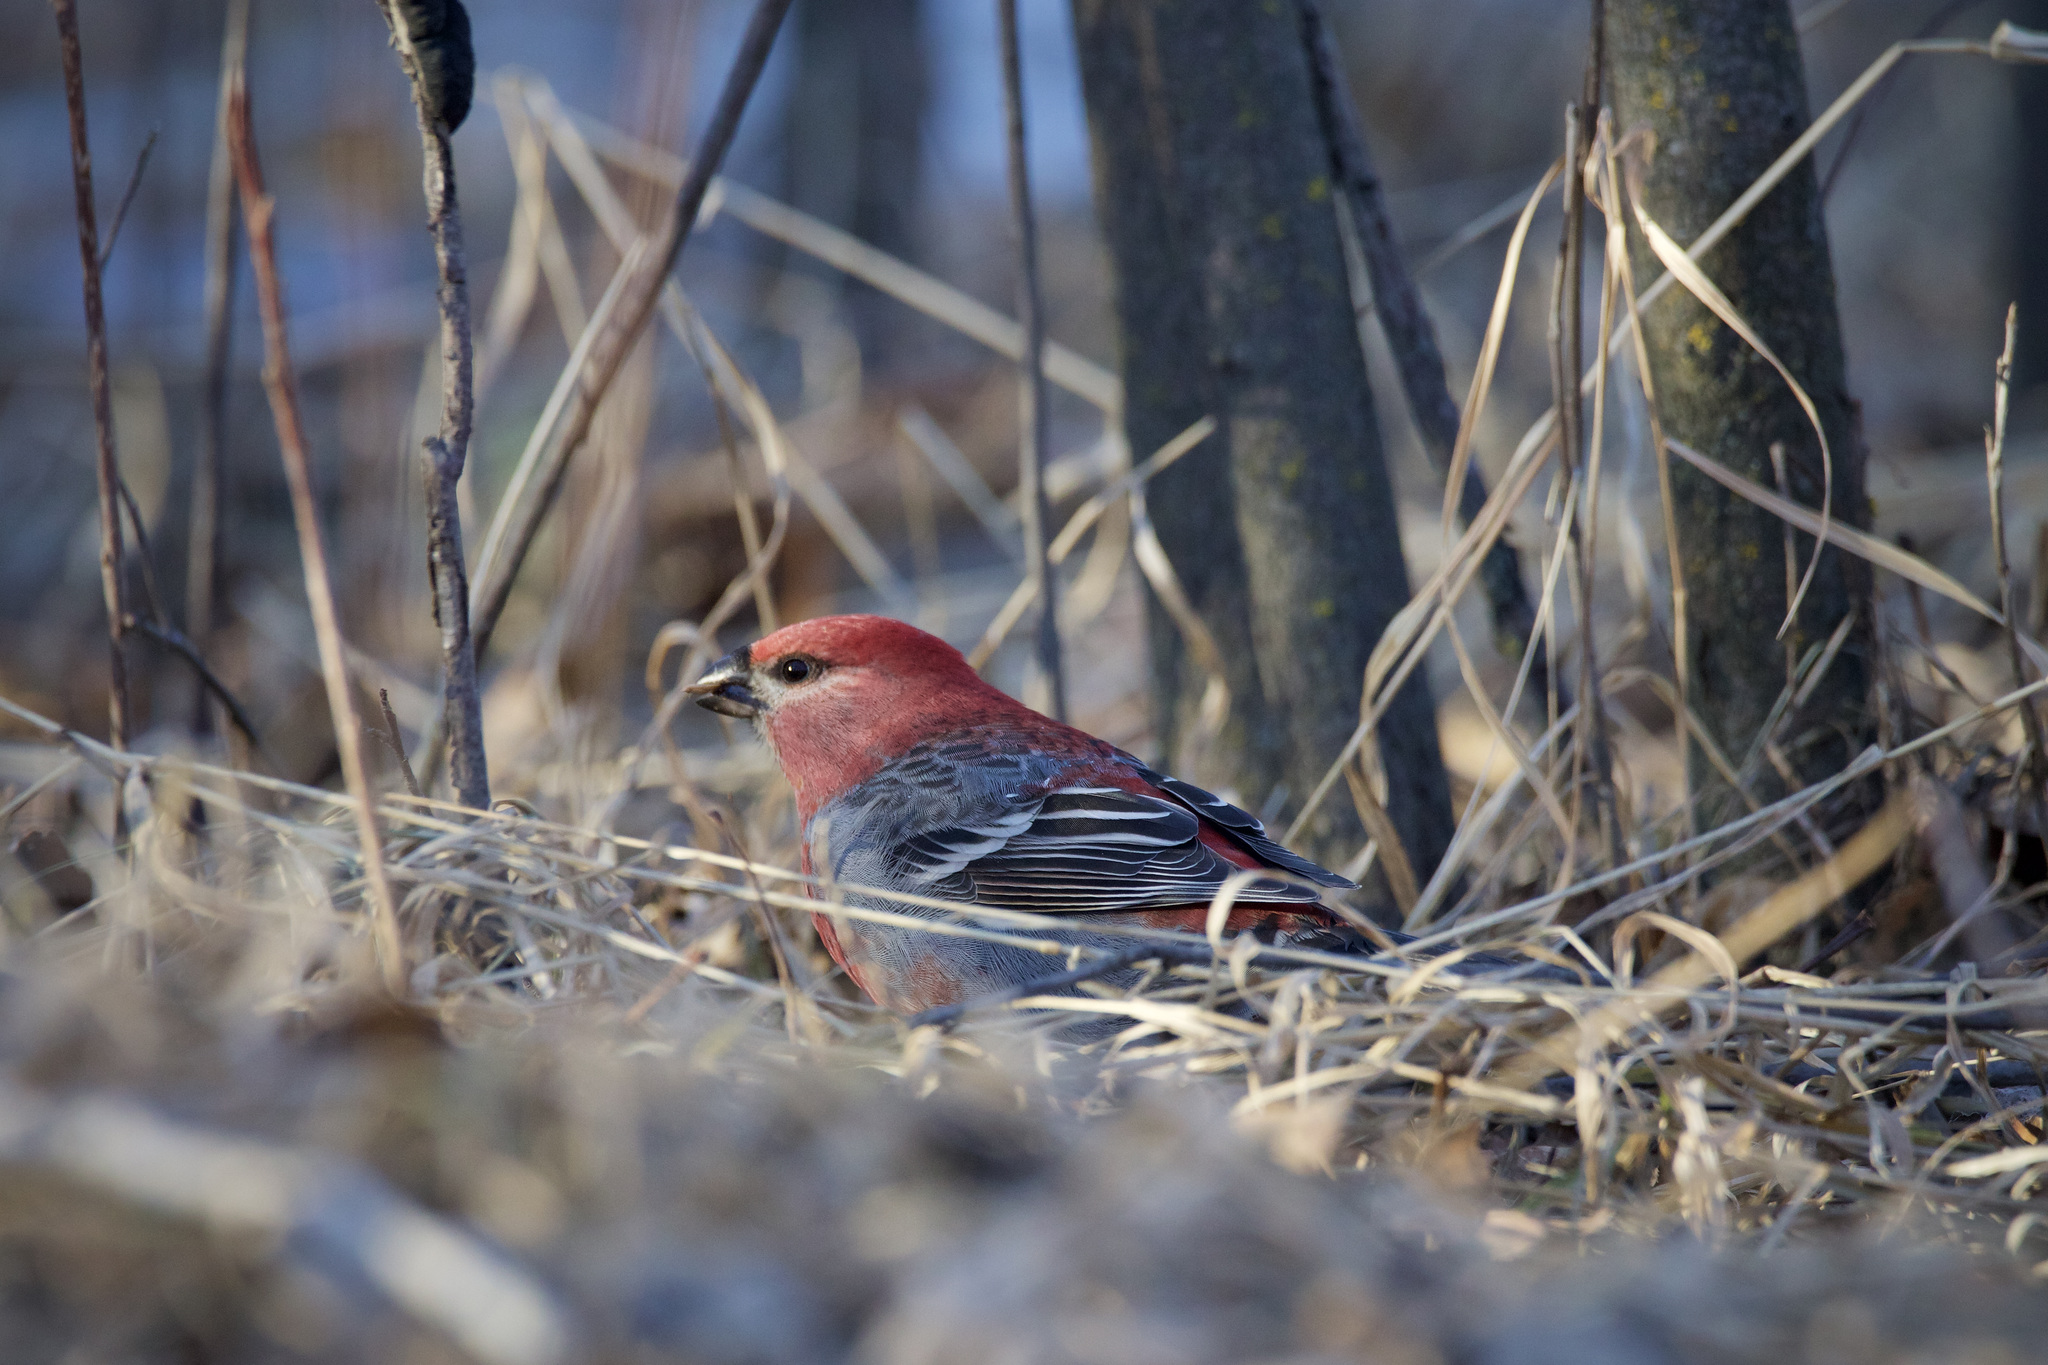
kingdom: Animalia
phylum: Chordata
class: Aves
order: Passeriformes
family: Fringillidae
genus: Pinicola
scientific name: Pinicola enucleator
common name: Pine grosbeak
